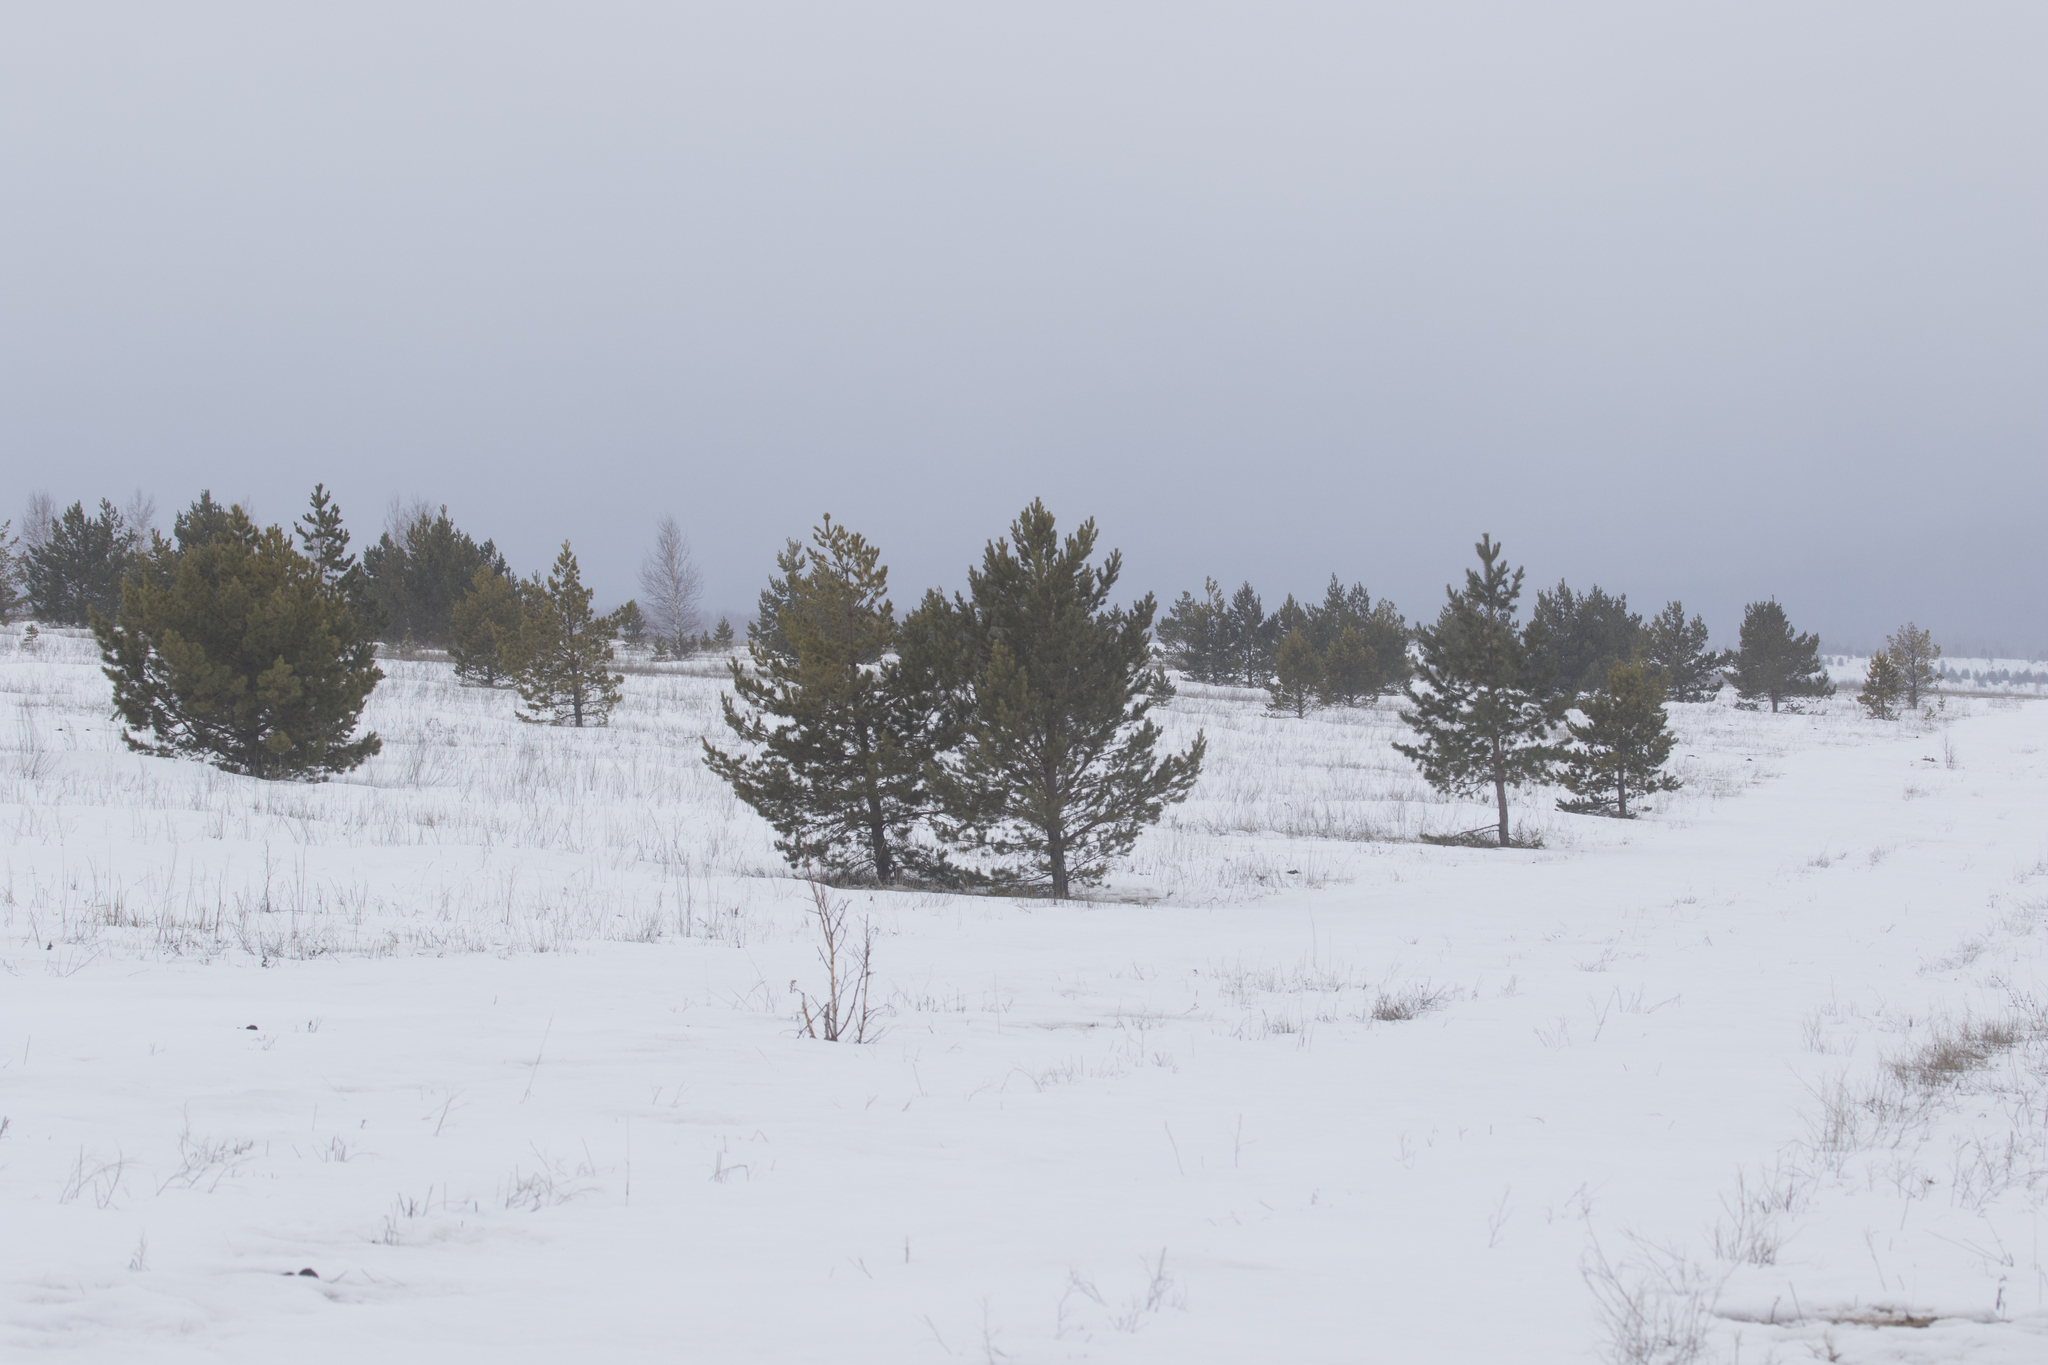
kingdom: Plantae
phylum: Tracheophyta
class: Pinopsida
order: Pinales
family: Pinaceae
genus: Pinus
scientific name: Pinus sylvestris
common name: Scots pine
